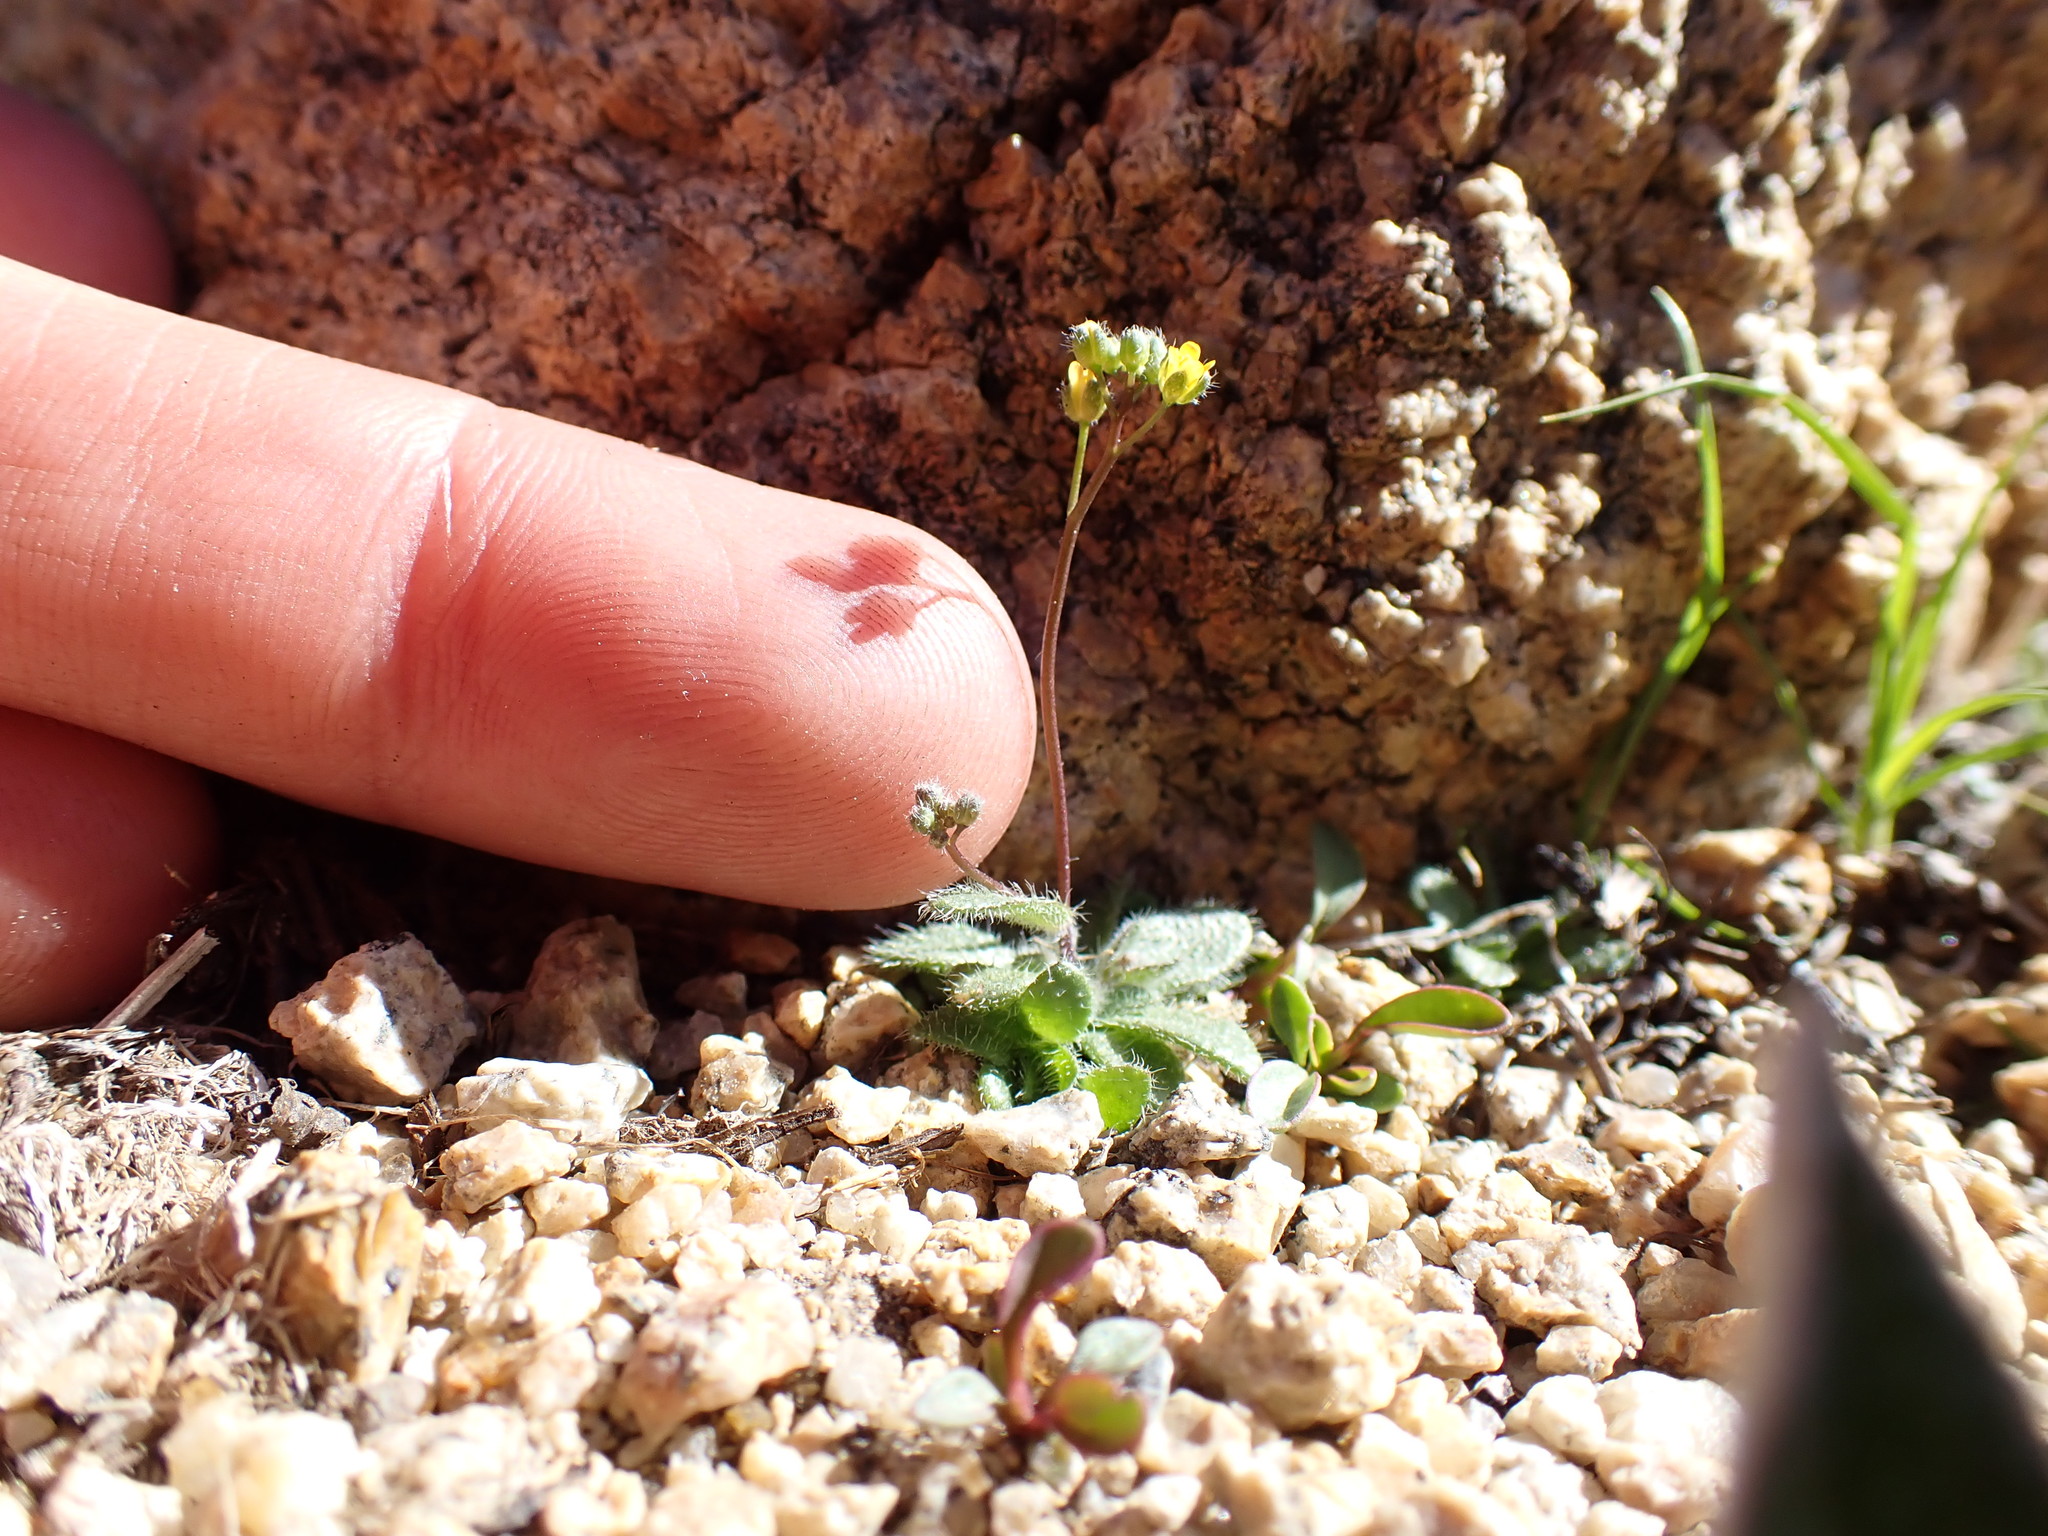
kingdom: Plantae
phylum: Tracheophyta
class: Magnoliopsida
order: Brassicales
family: Brassicaceae
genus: Draba
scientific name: Draba albertina
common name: Slender draba
